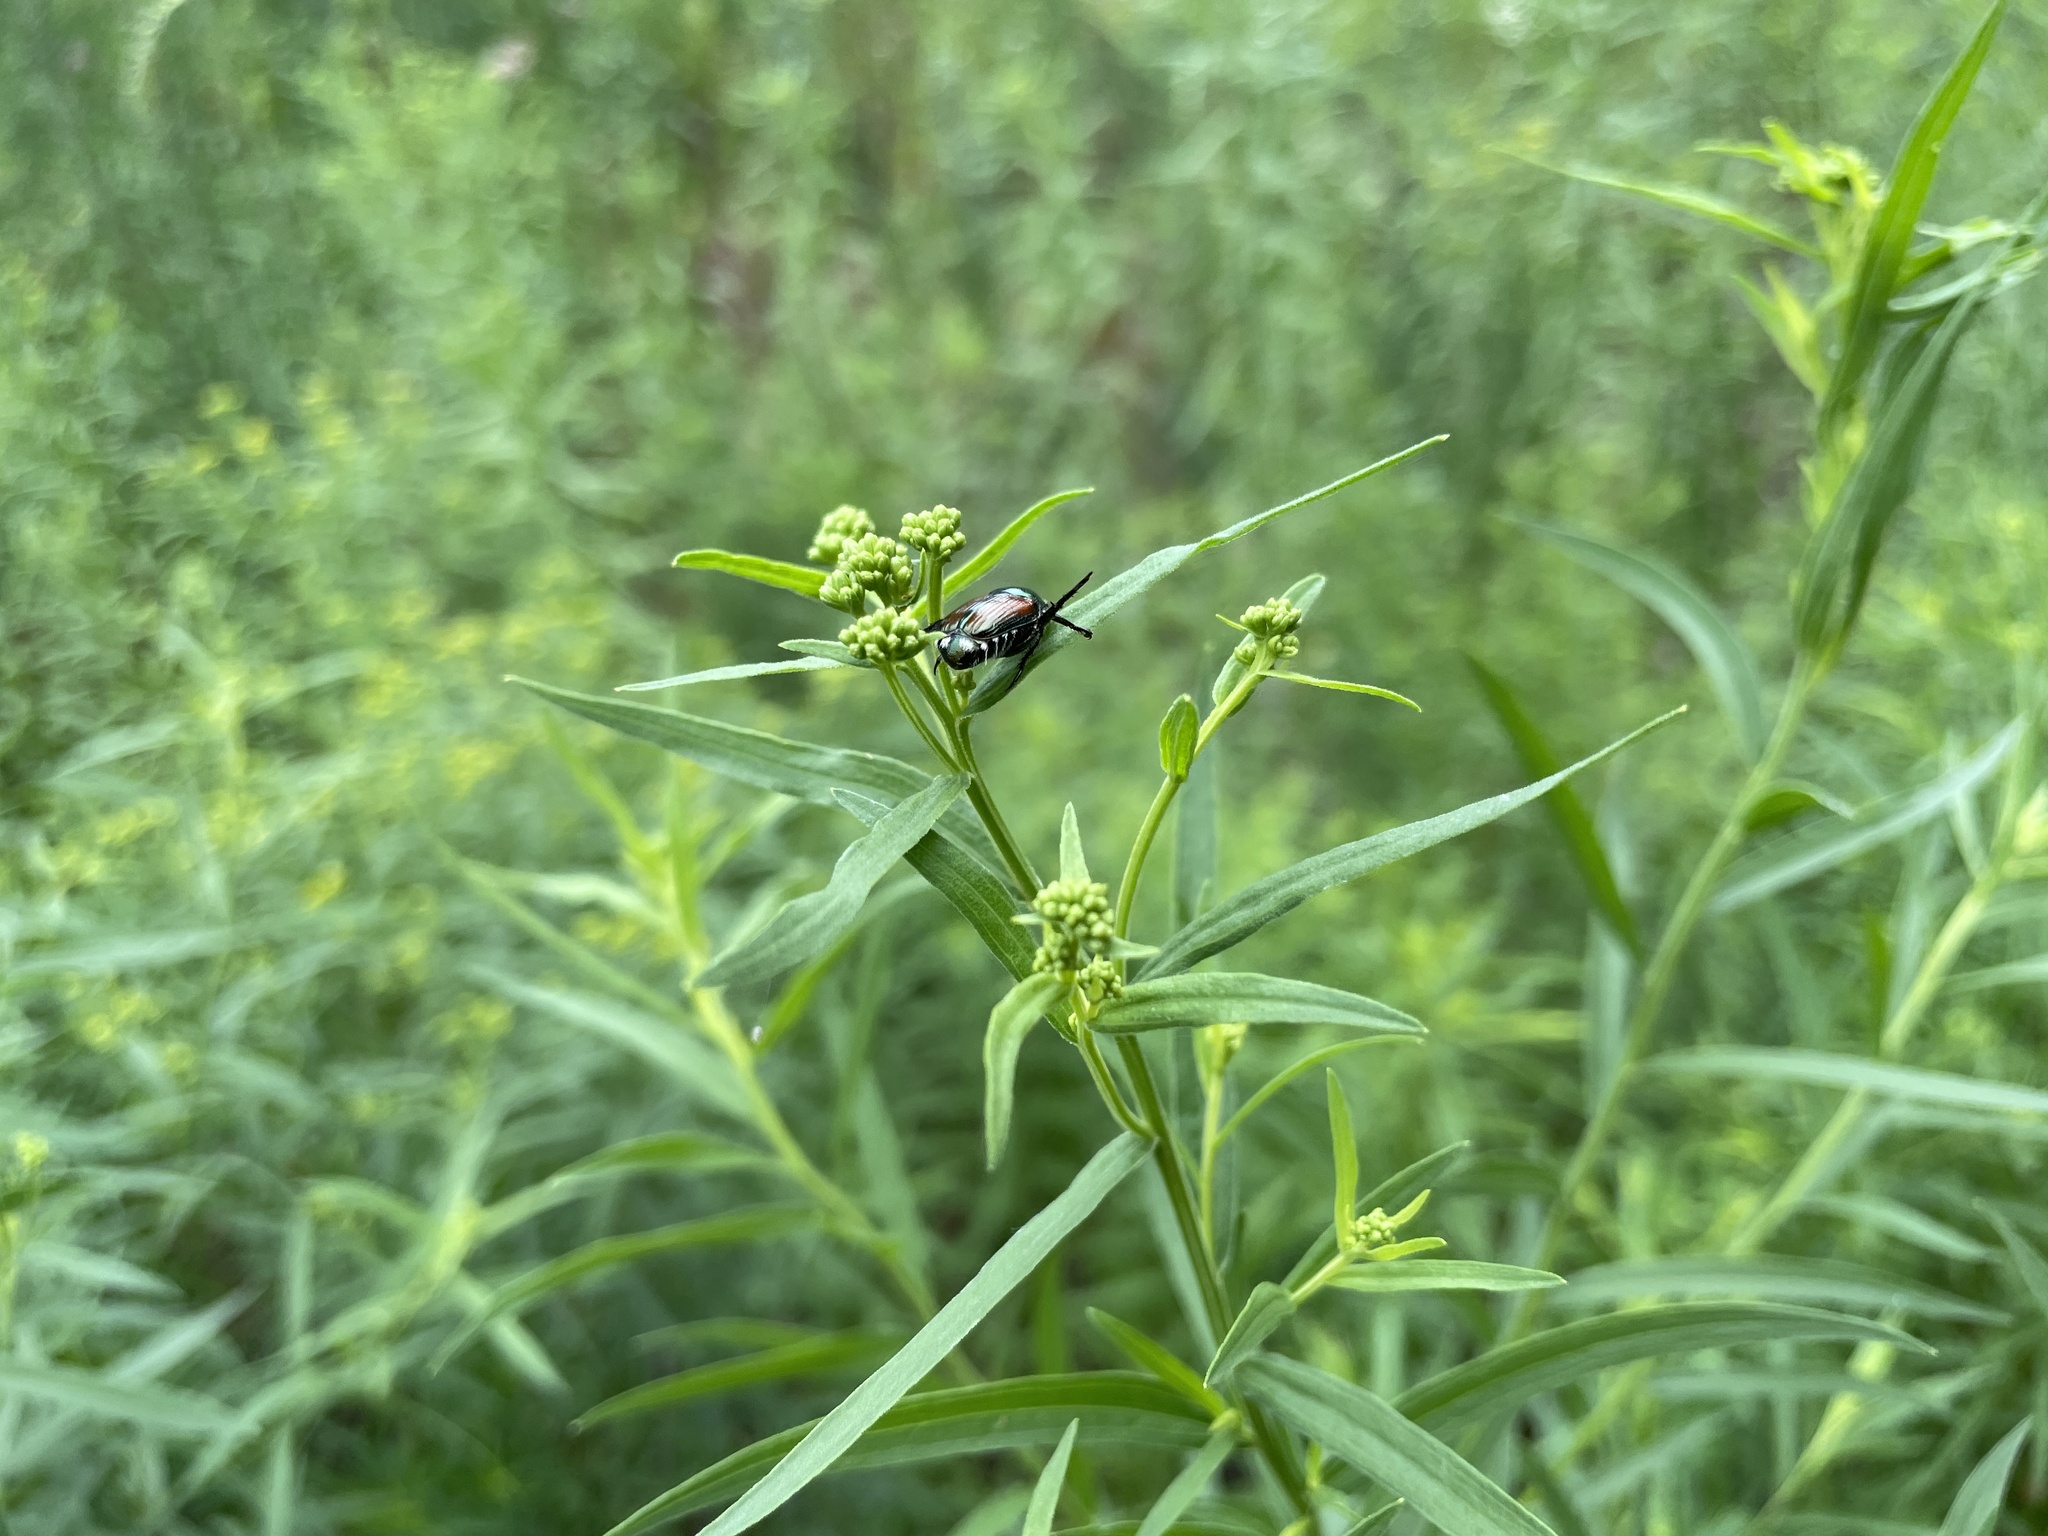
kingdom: Animalia
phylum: Arthropoda
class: Insecta
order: Coleoptera
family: Scarabaeidae
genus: Popillia
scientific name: Popillia japonica
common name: Japanese beetle
